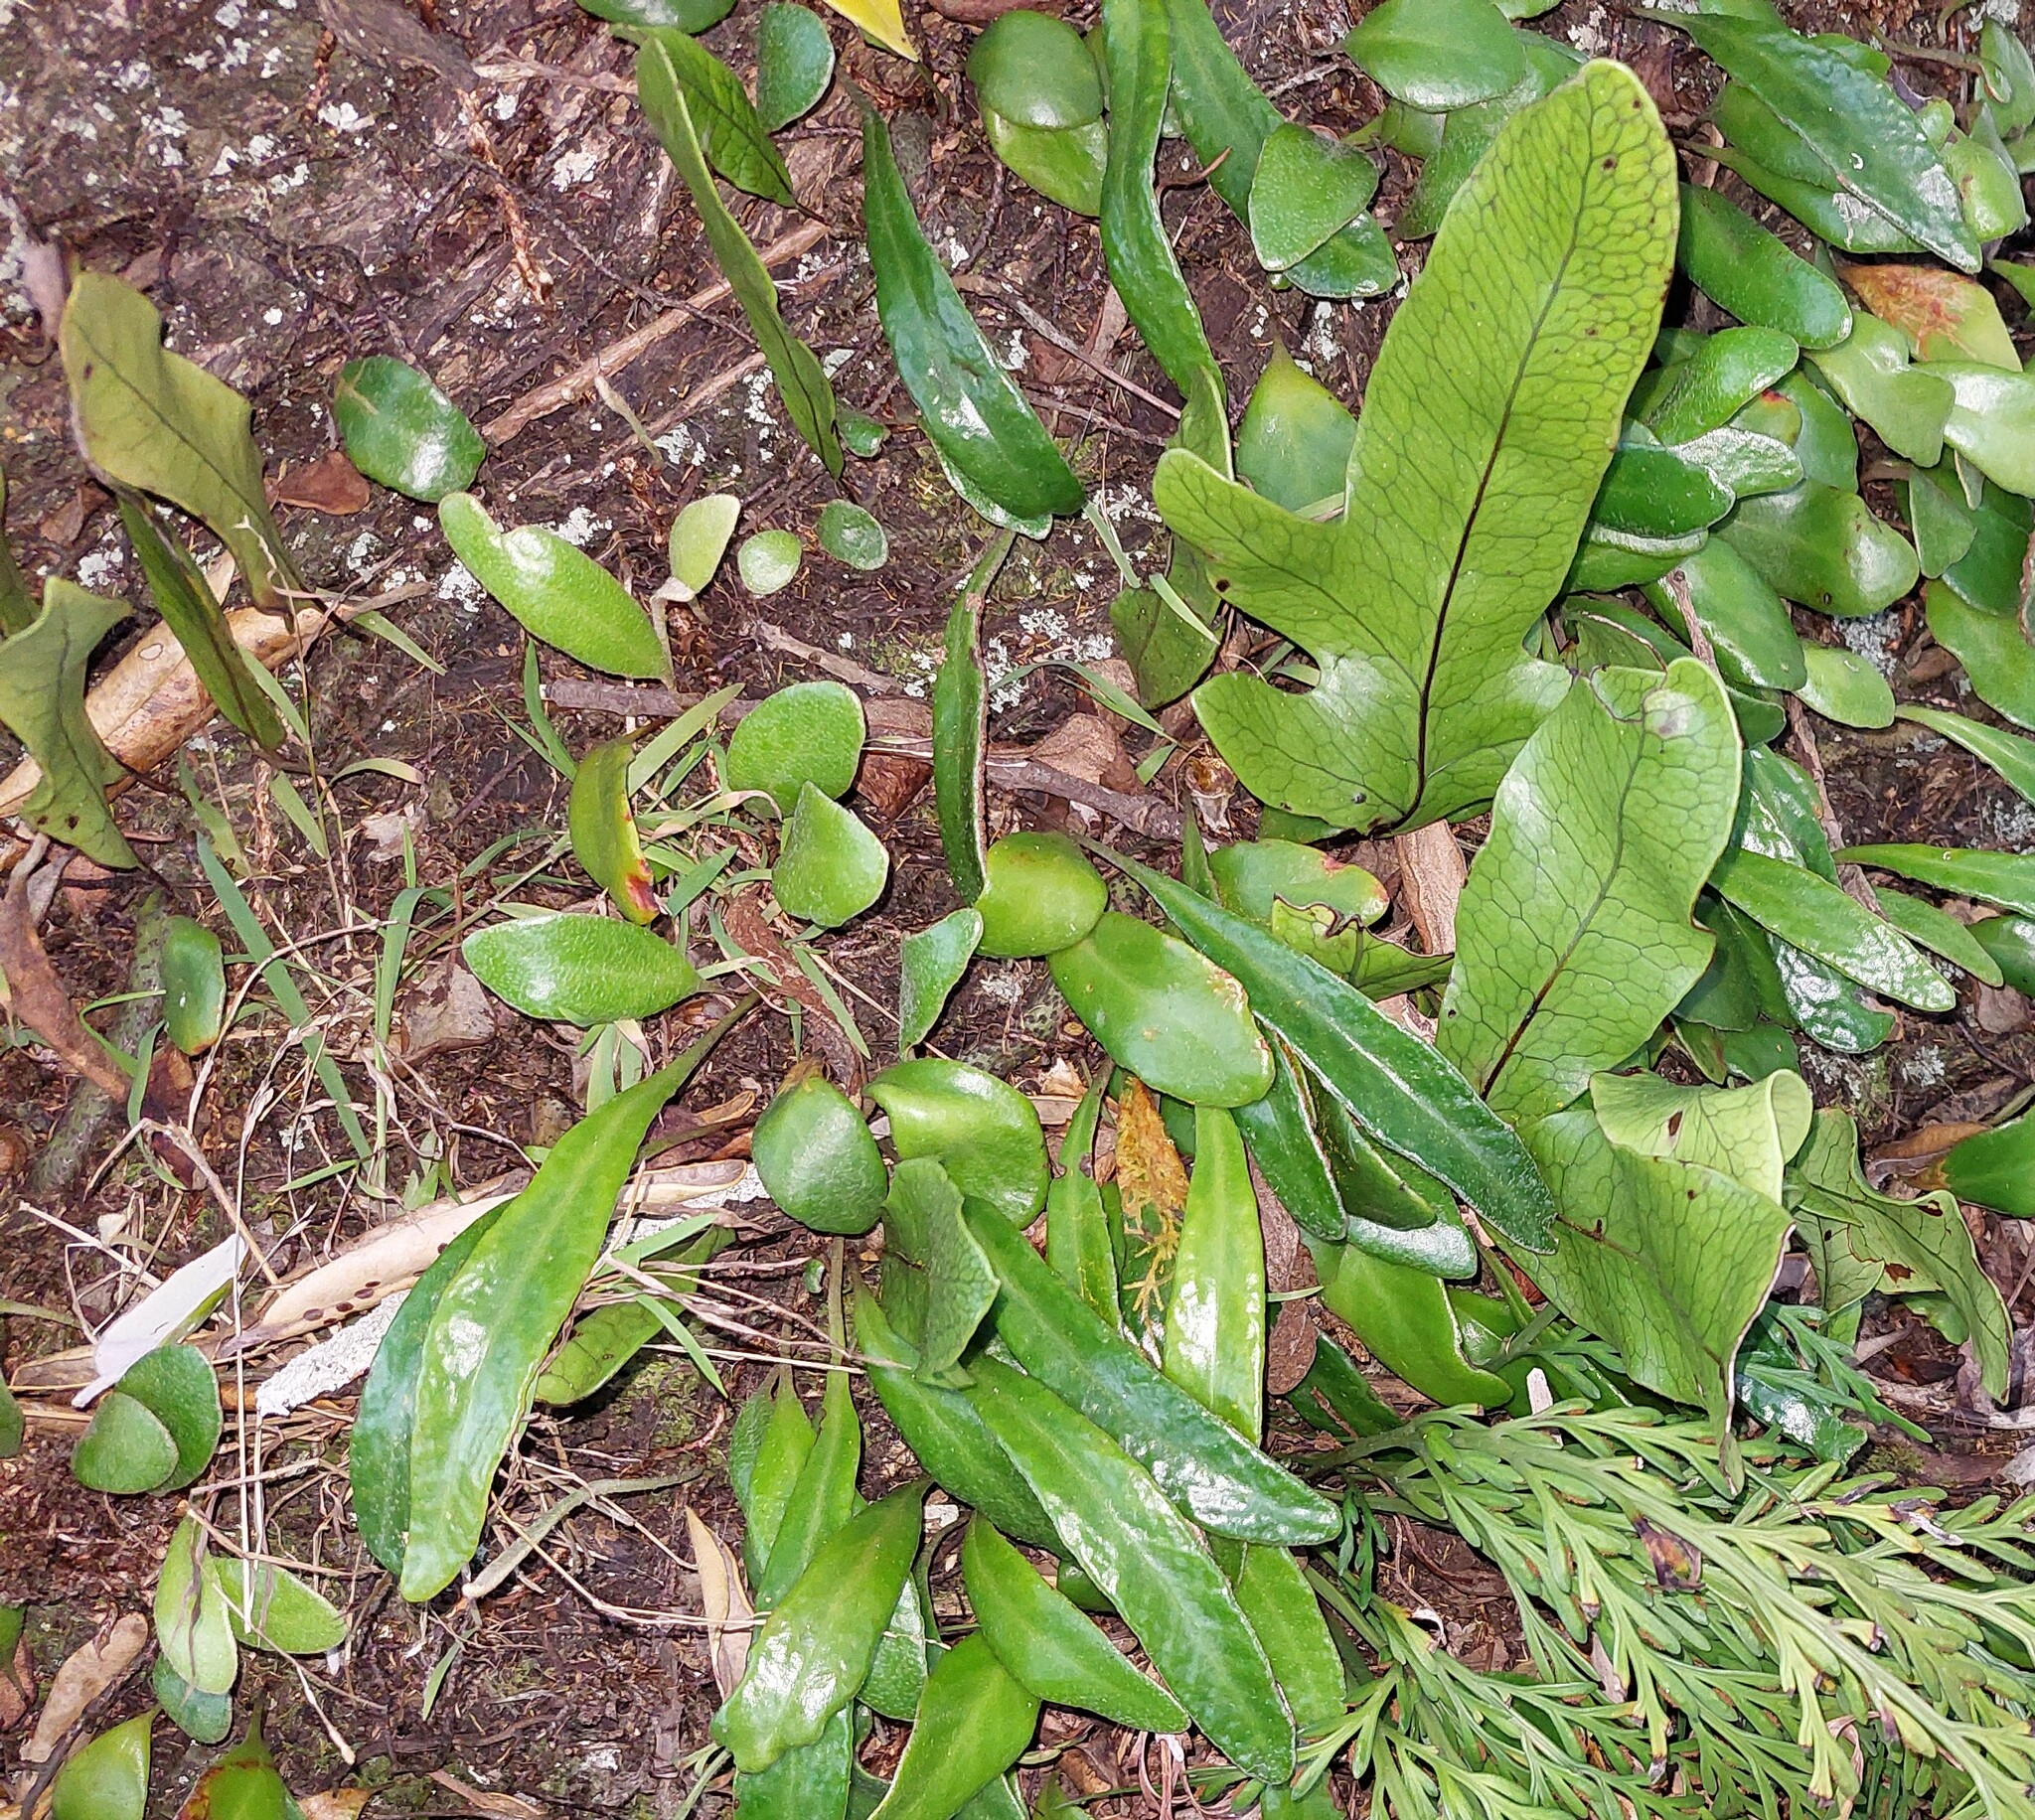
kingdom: Plantae
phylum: Tracheophyta
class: Polypodiopsida
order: Polypodiales
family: Polypodiaceae
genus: Pyrrosia
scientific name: Pyrrosia eleagnifolia
